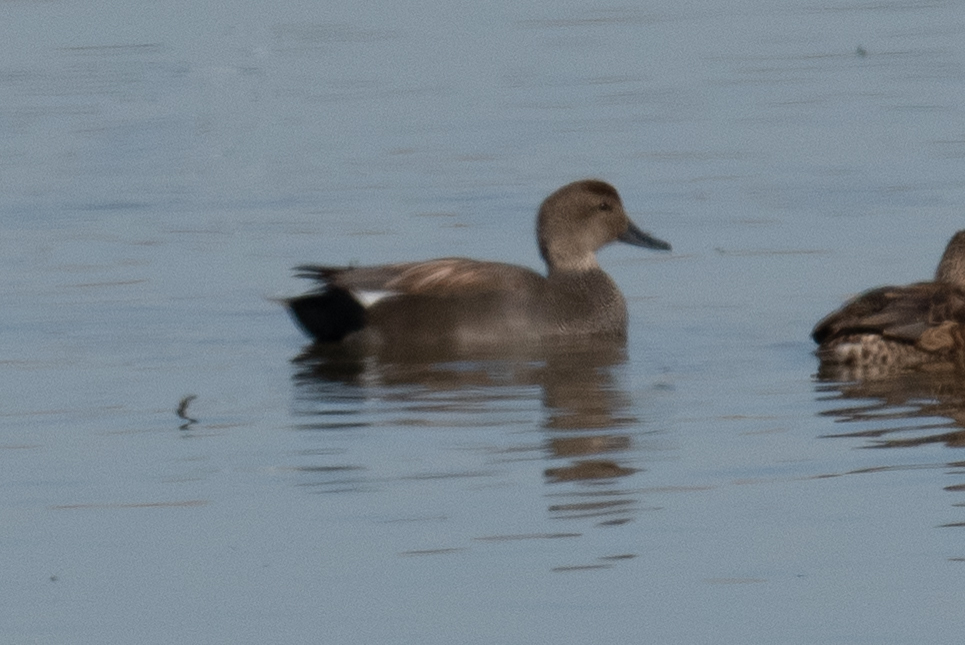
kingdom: Animalia
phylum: Chordata
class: Aves
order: Anseriformes
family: Anatidae
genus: Mareca
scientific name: Mareca strepera
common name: Gadwall
